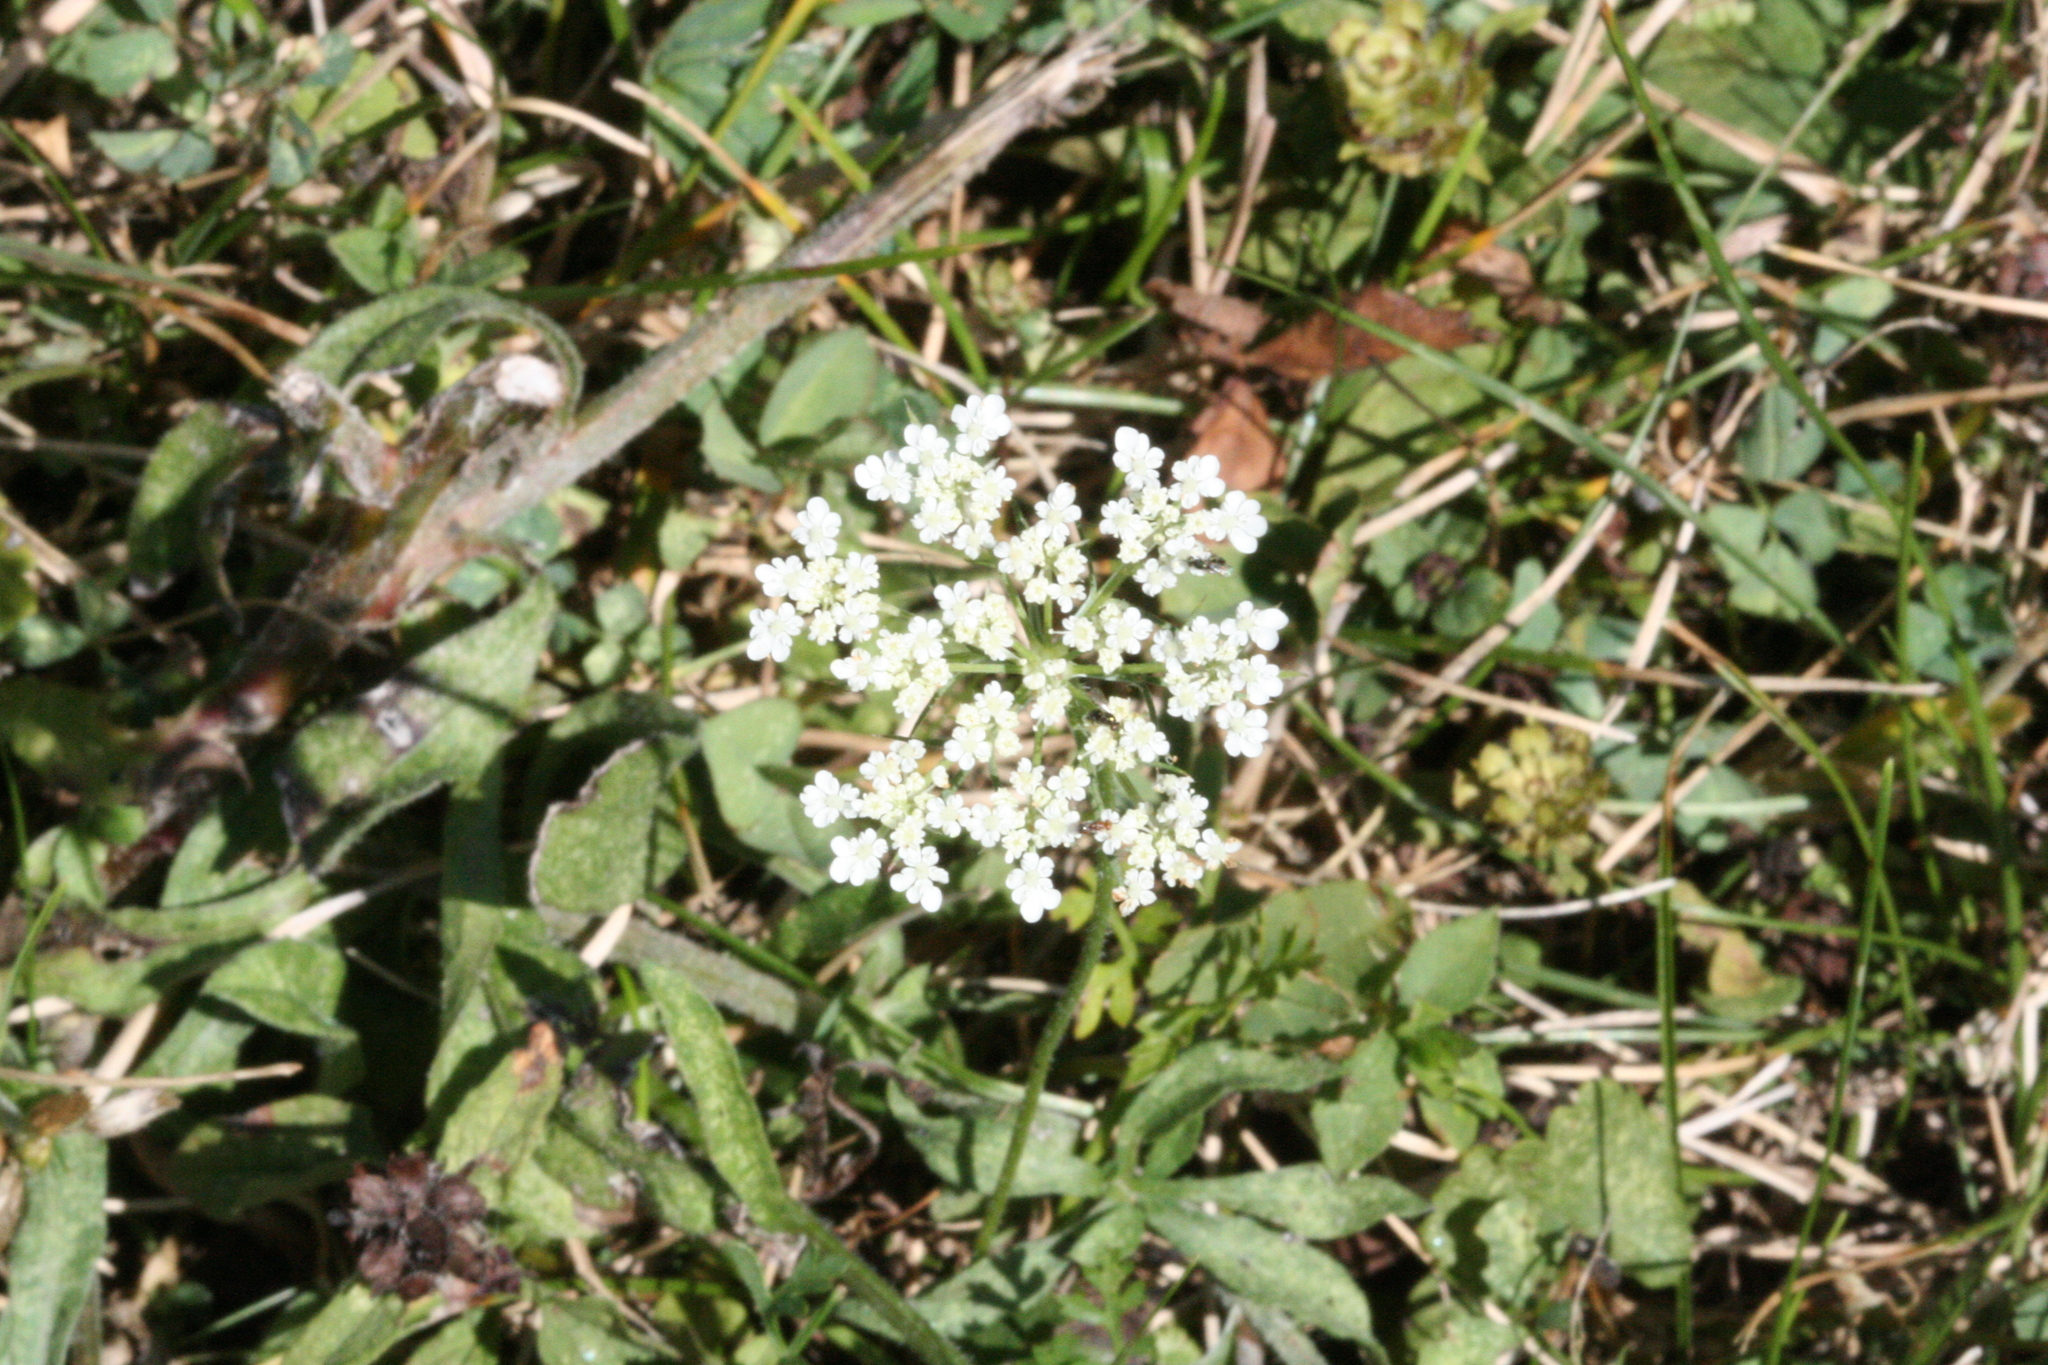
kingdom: Plantae
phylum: Tracheophyta
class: Magnoliopsida
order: Apiales
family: Apiaceae
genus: Daucus
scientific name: Daucus carota
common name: Wild carrot
